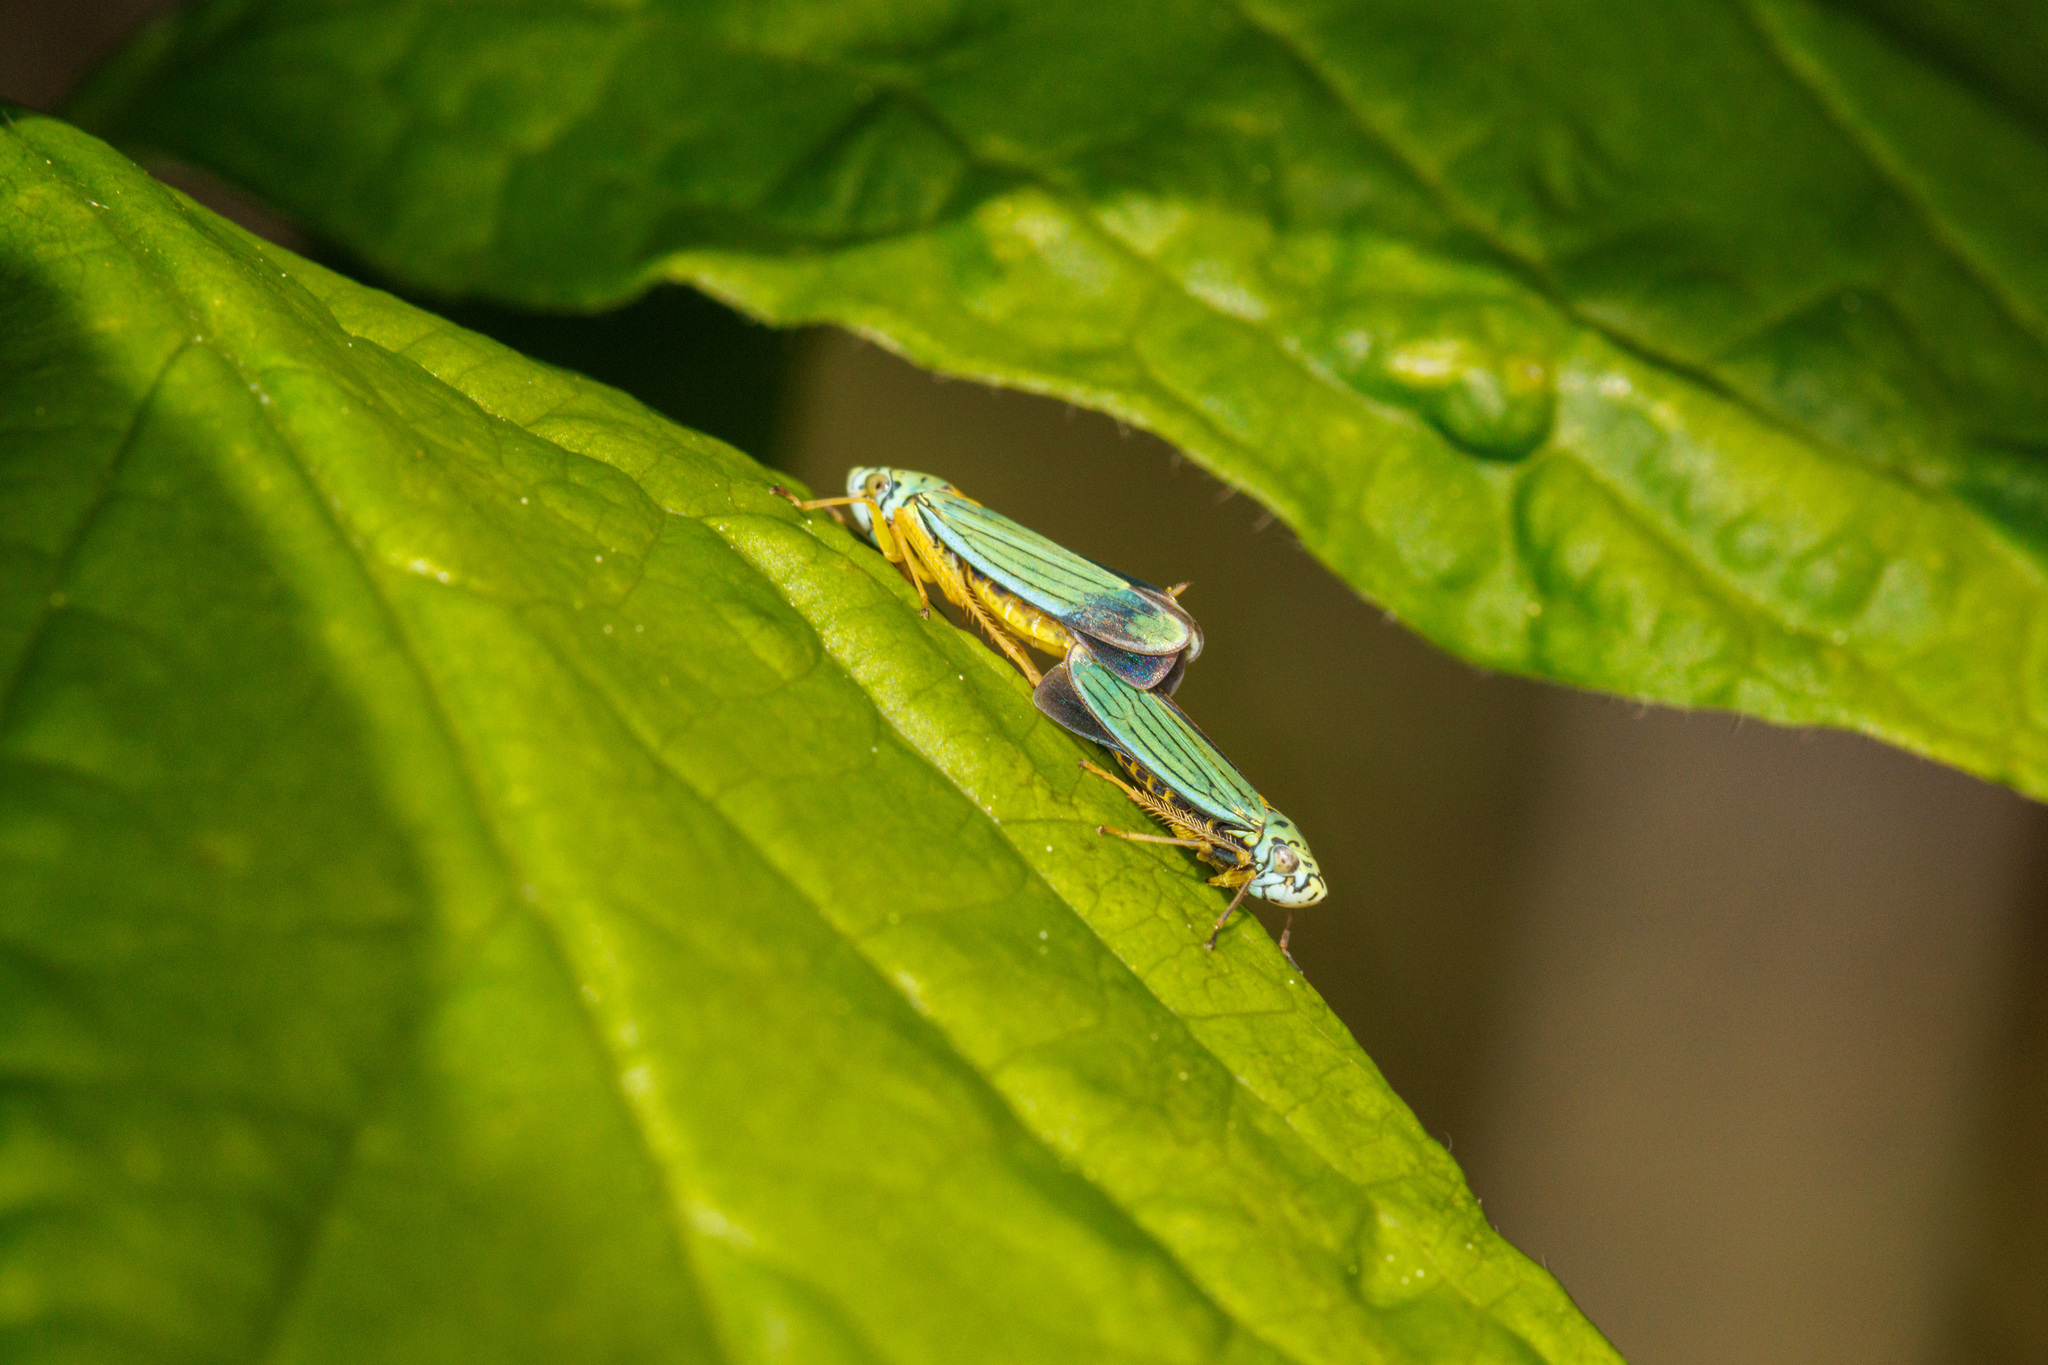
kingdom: Animalia
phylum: Arthropoda
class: Insecta
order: Hemiptera
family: Cicadellidae
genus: Graphocephala
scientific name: Graphocephala atropunctata
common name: Blue-green sharpshooter
